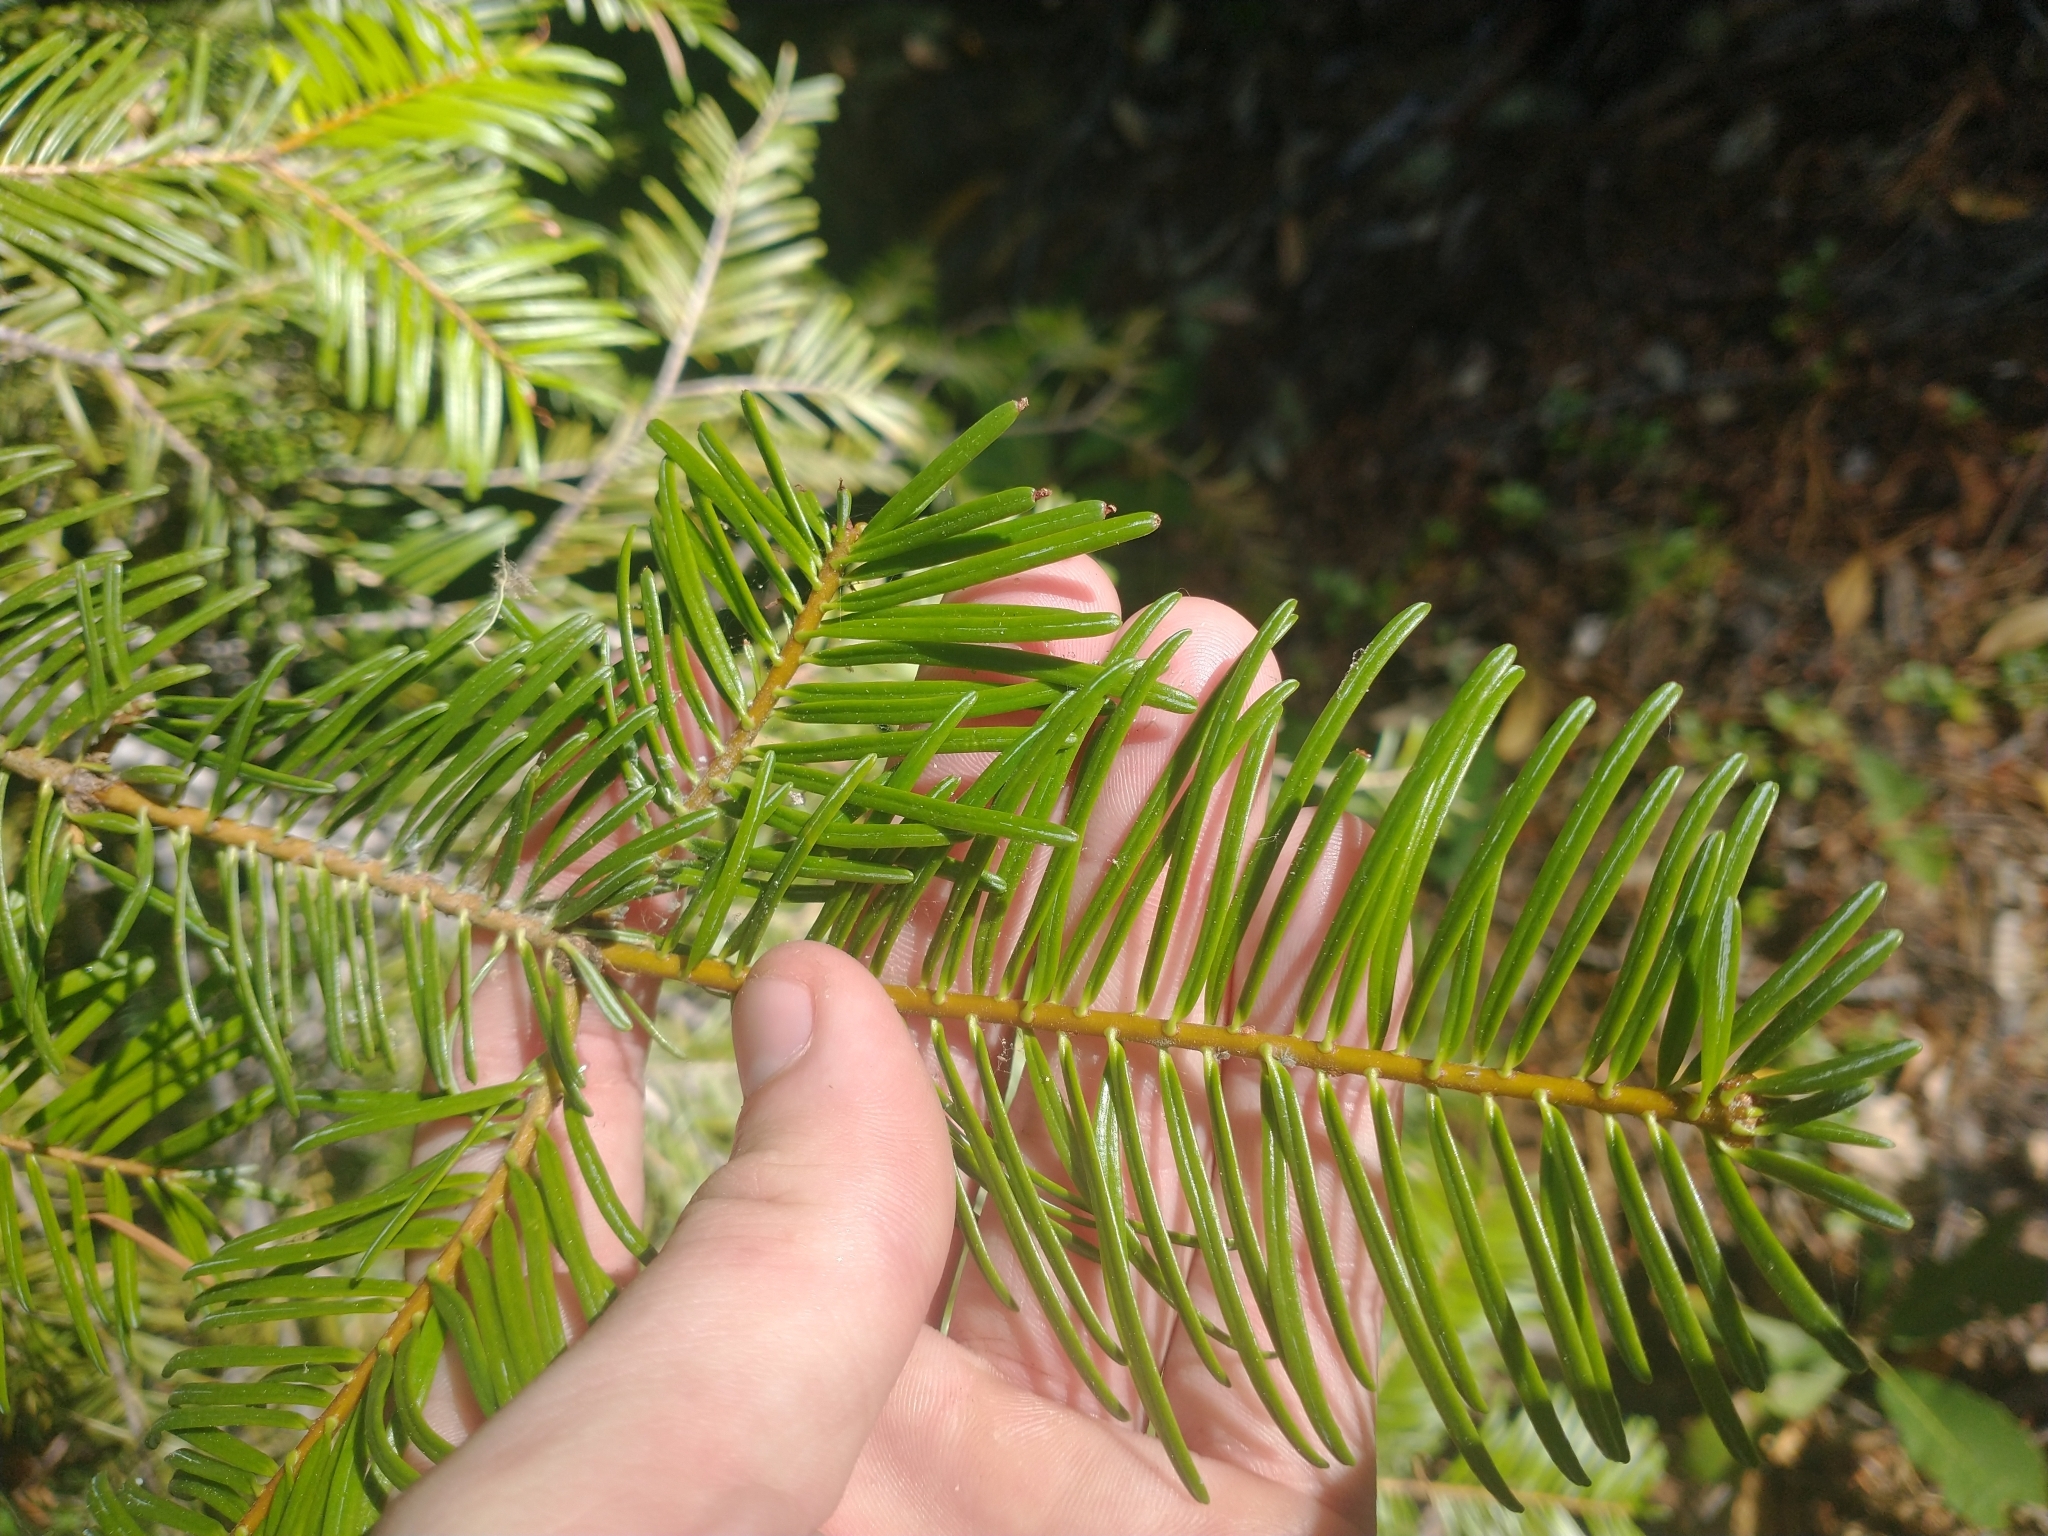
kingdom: Plantae
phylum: Tracheophyta
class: Pinopsida
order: Pinales
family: Pinaceae
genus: Abies
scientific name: Abies concolor
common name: Colorado fir
